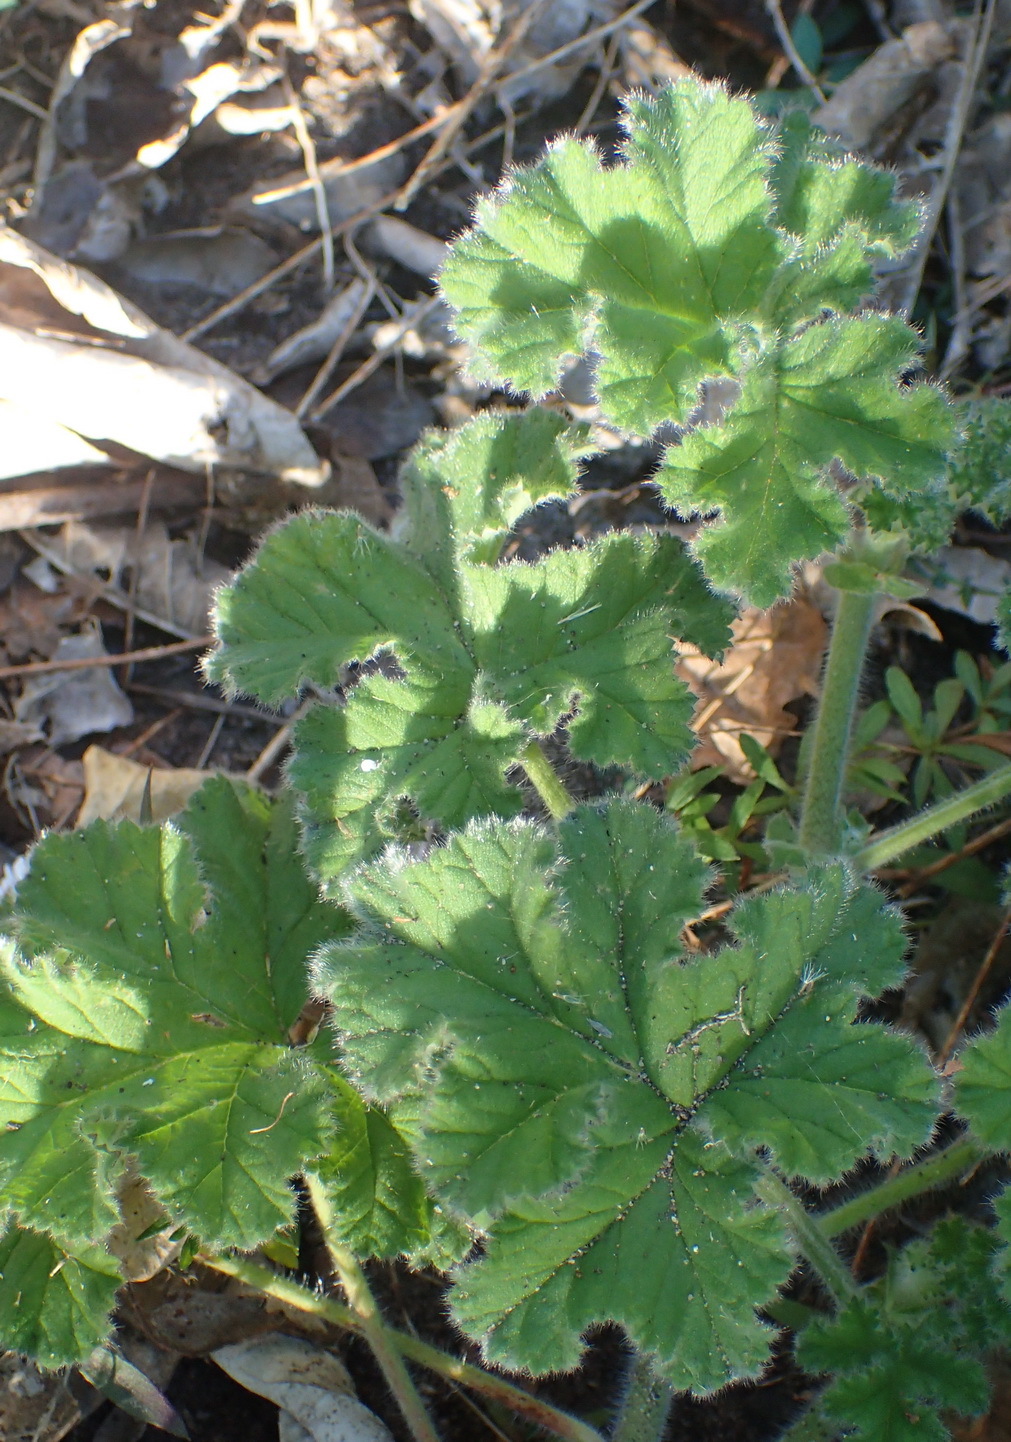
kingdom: Plantae
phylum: Tracheophyta
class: Magnoliopsida
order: Geraniales
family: Geraniaceae
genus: Pelargonium
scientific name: Pelargonium capitatum
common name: Rose scented geranium
